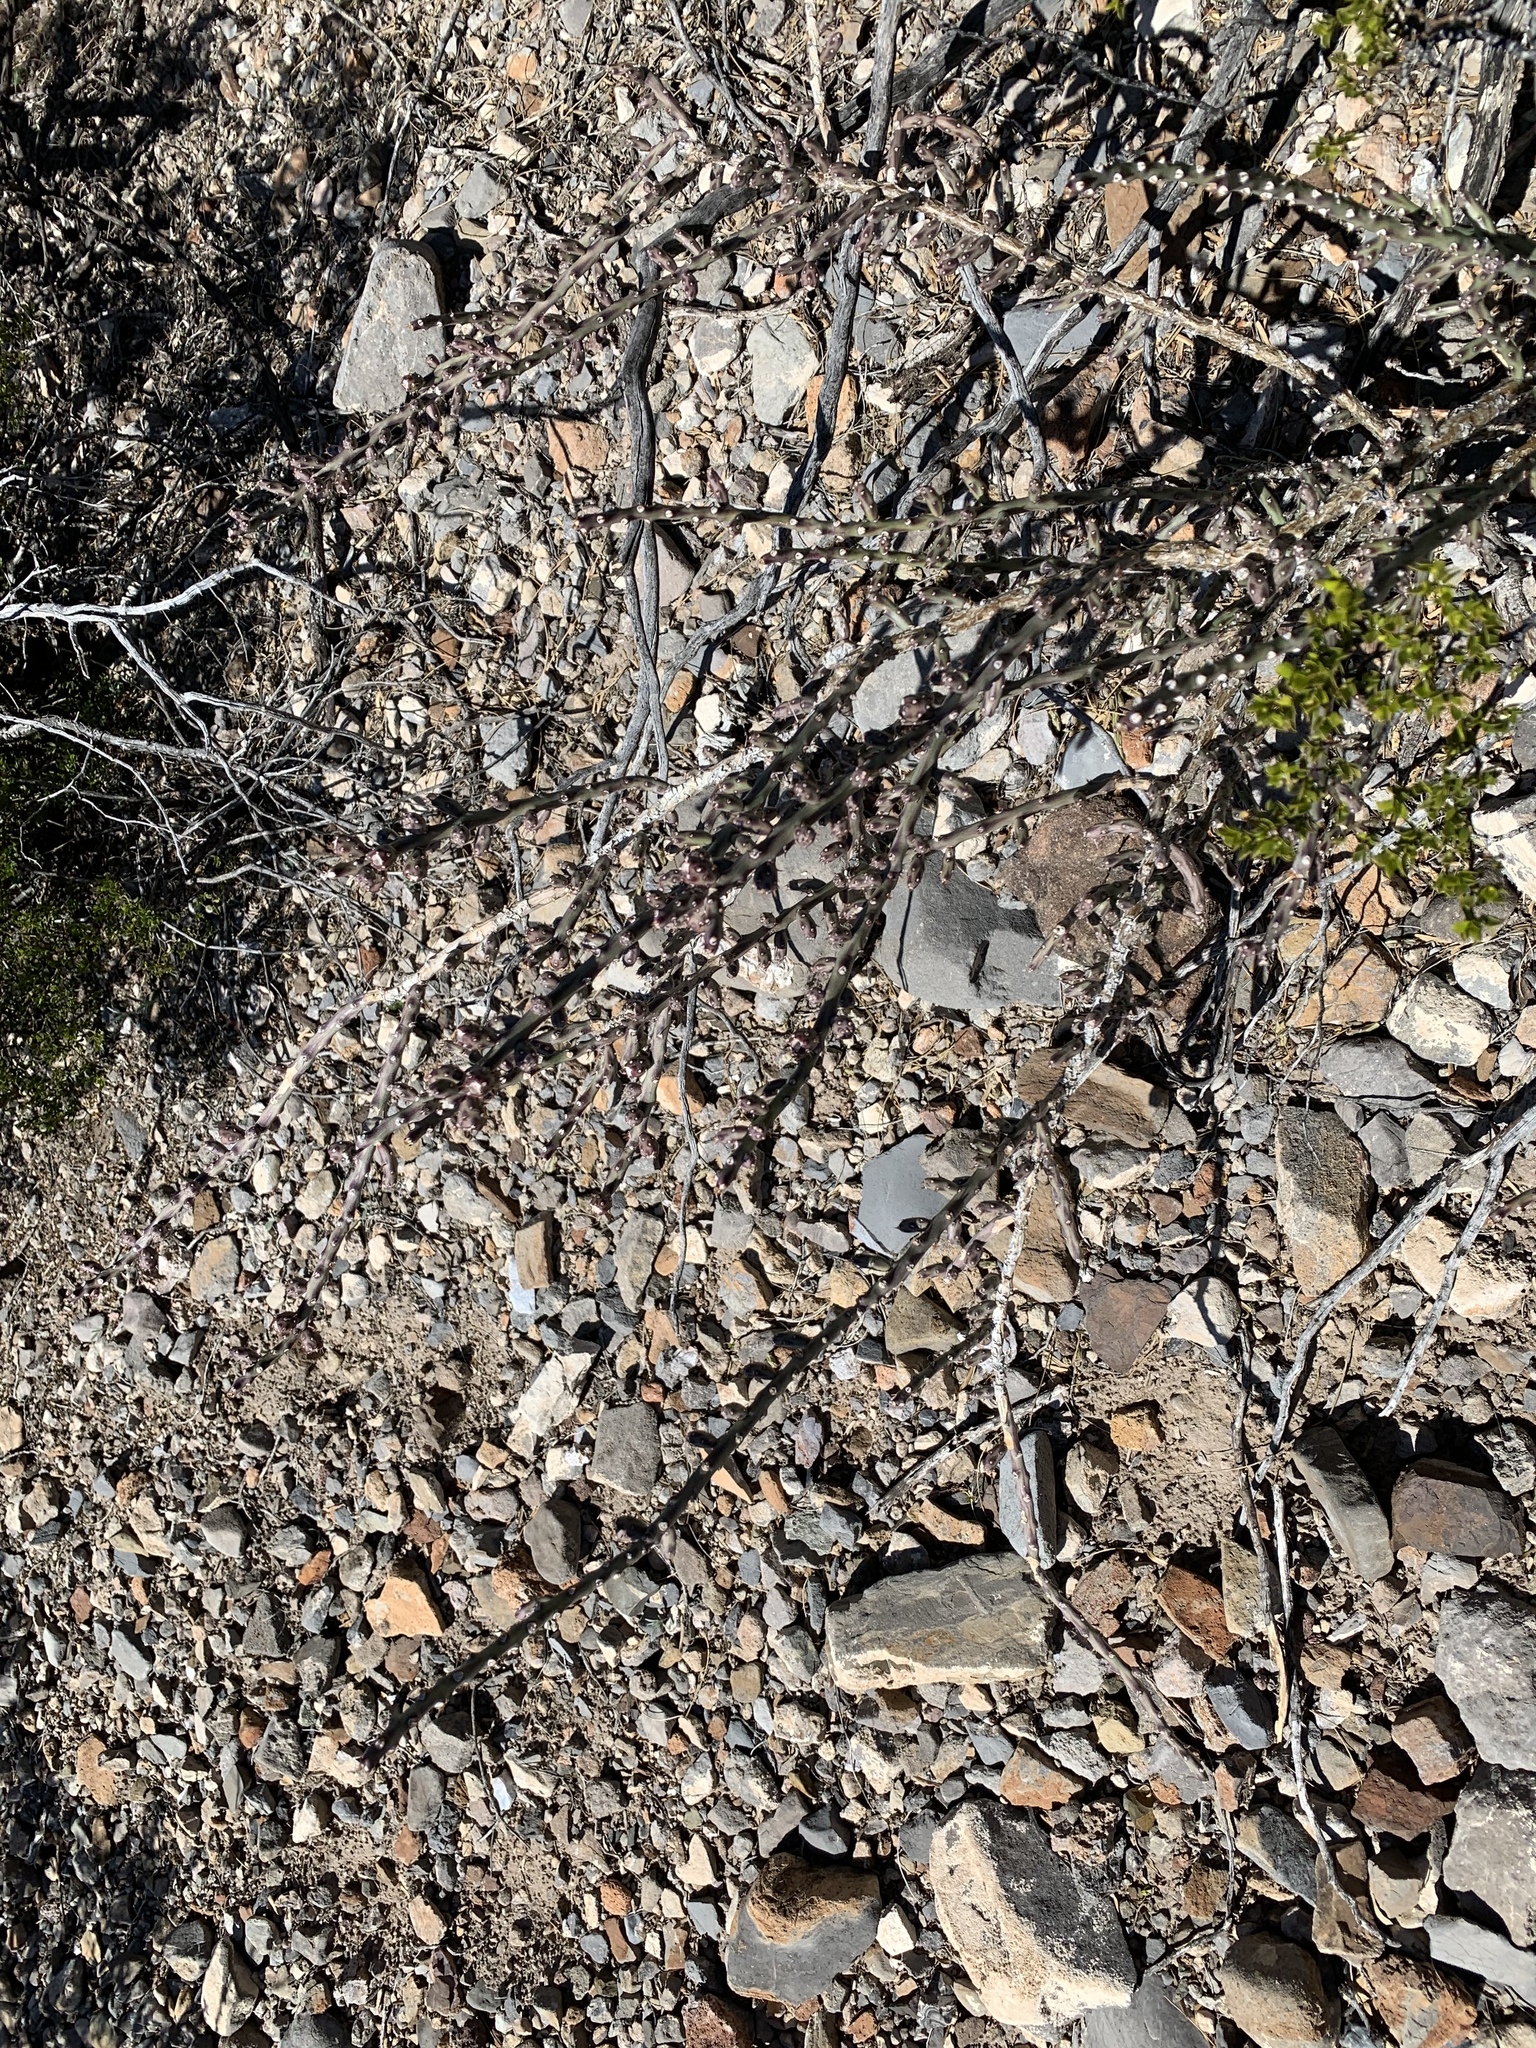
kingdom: Plantae
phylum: Tracheophyta
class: Magnoliopsida
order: Caryophyllales
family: Cactaceae
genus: Cylindropuntia
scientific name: Cylindropuntia leptocaulis
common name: Christmas cactus
